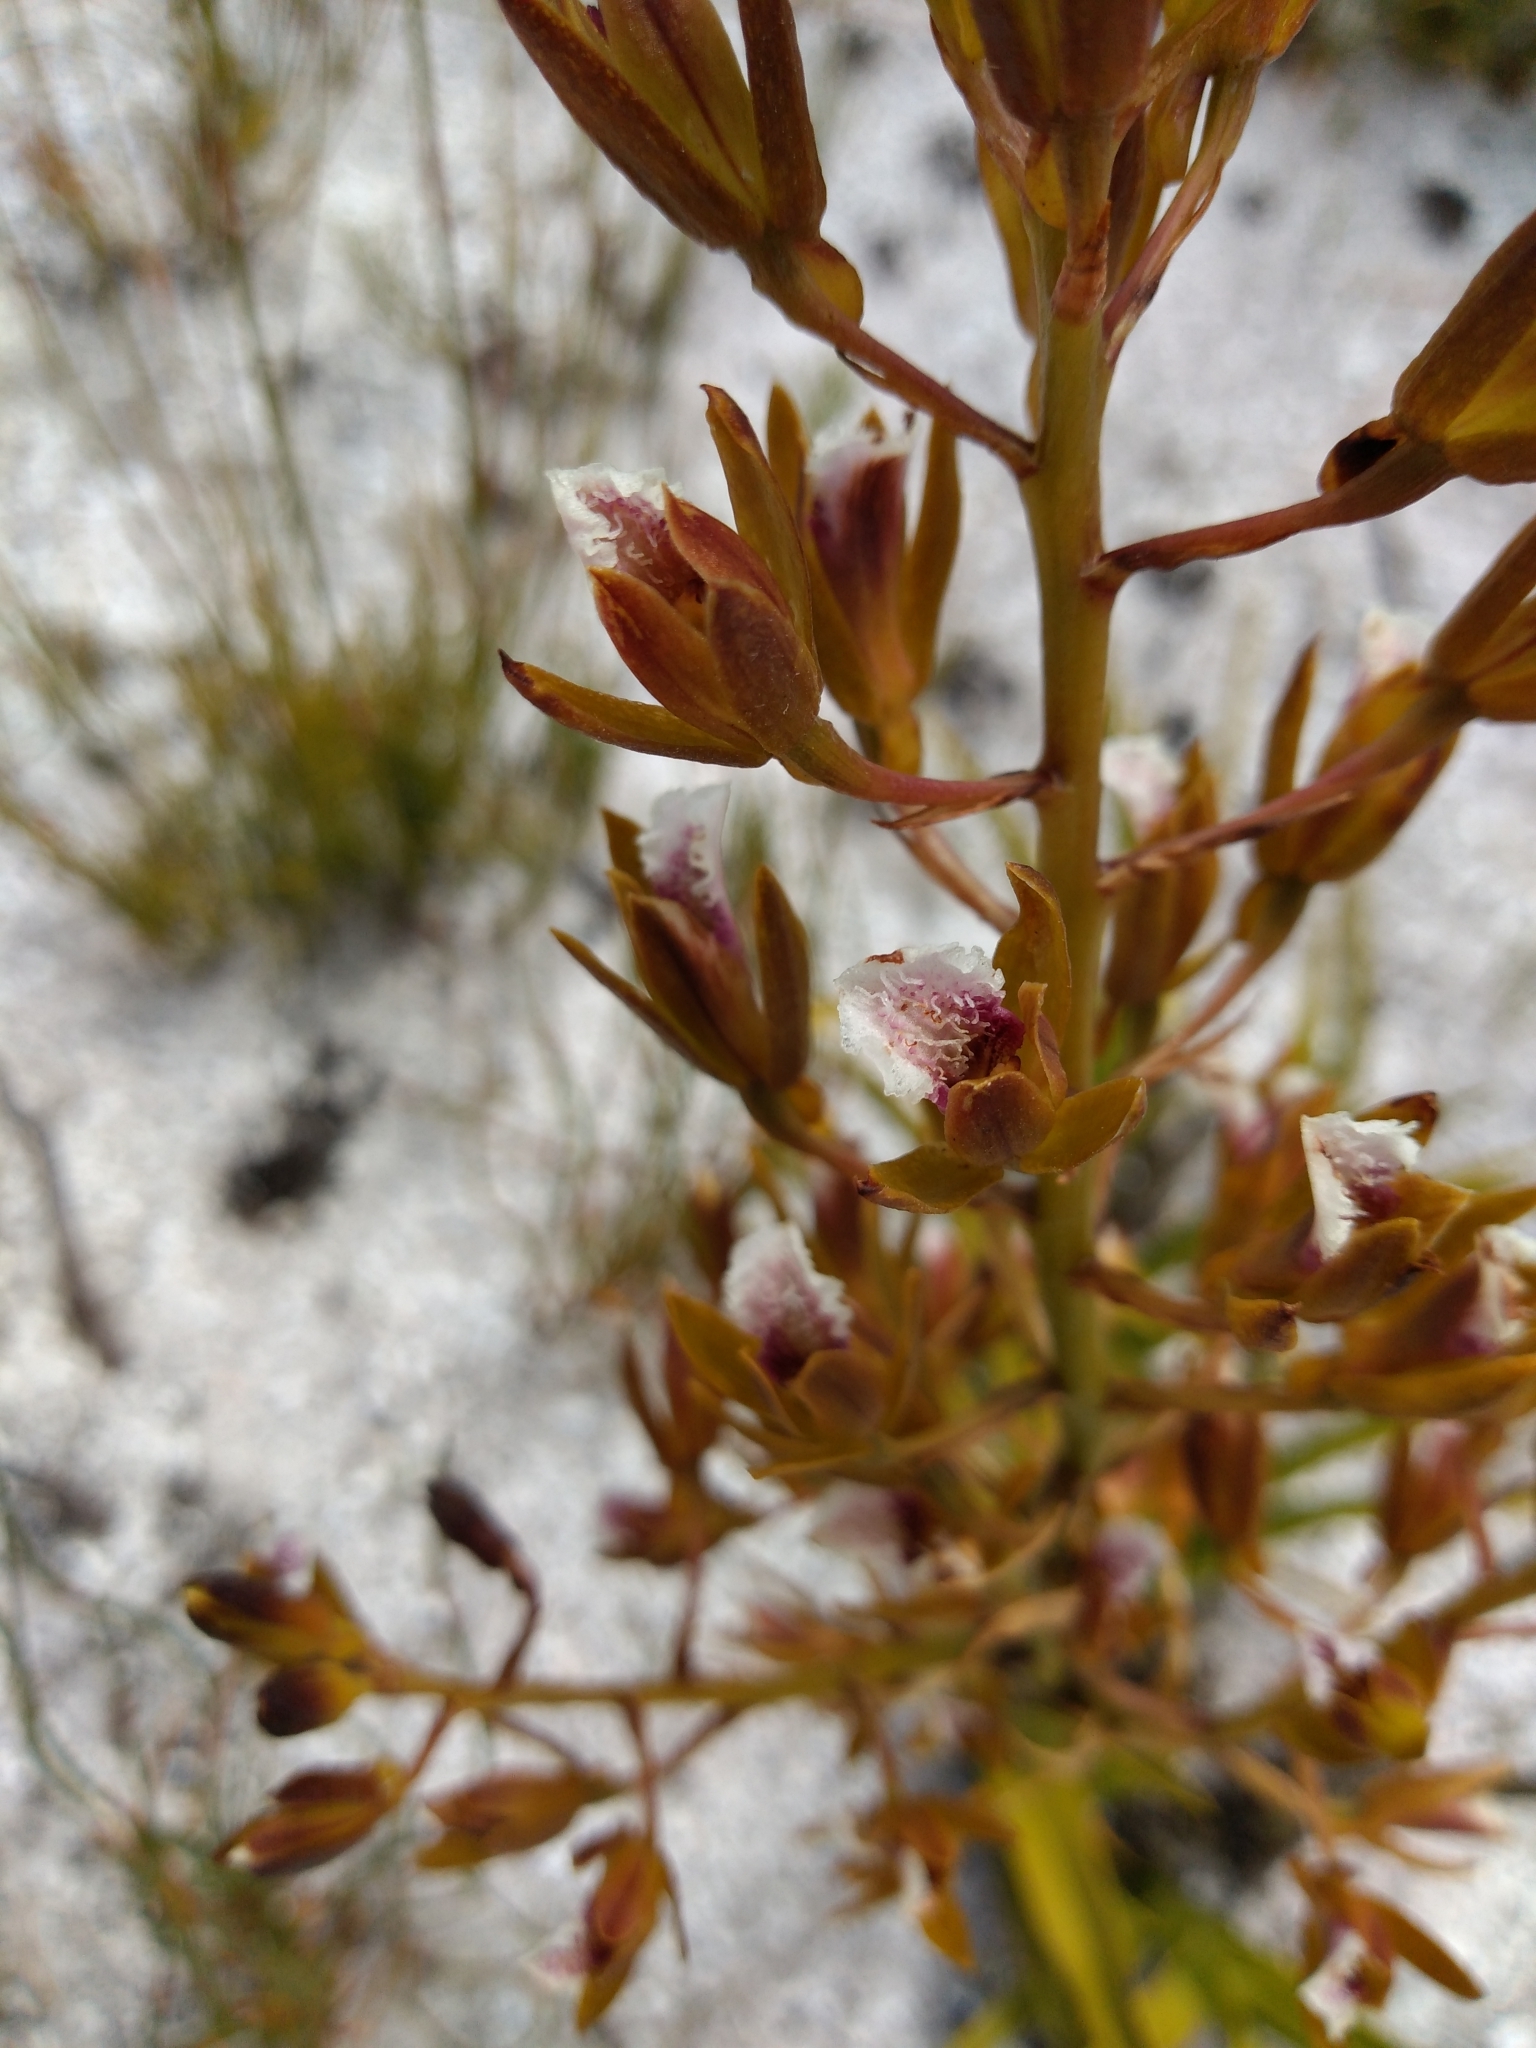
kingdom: Plantae
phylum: Tracheophyta
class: Liliopsida
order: Asparagales
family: Orchidaceae
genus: Eulophia
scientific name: Eulophia tristis
